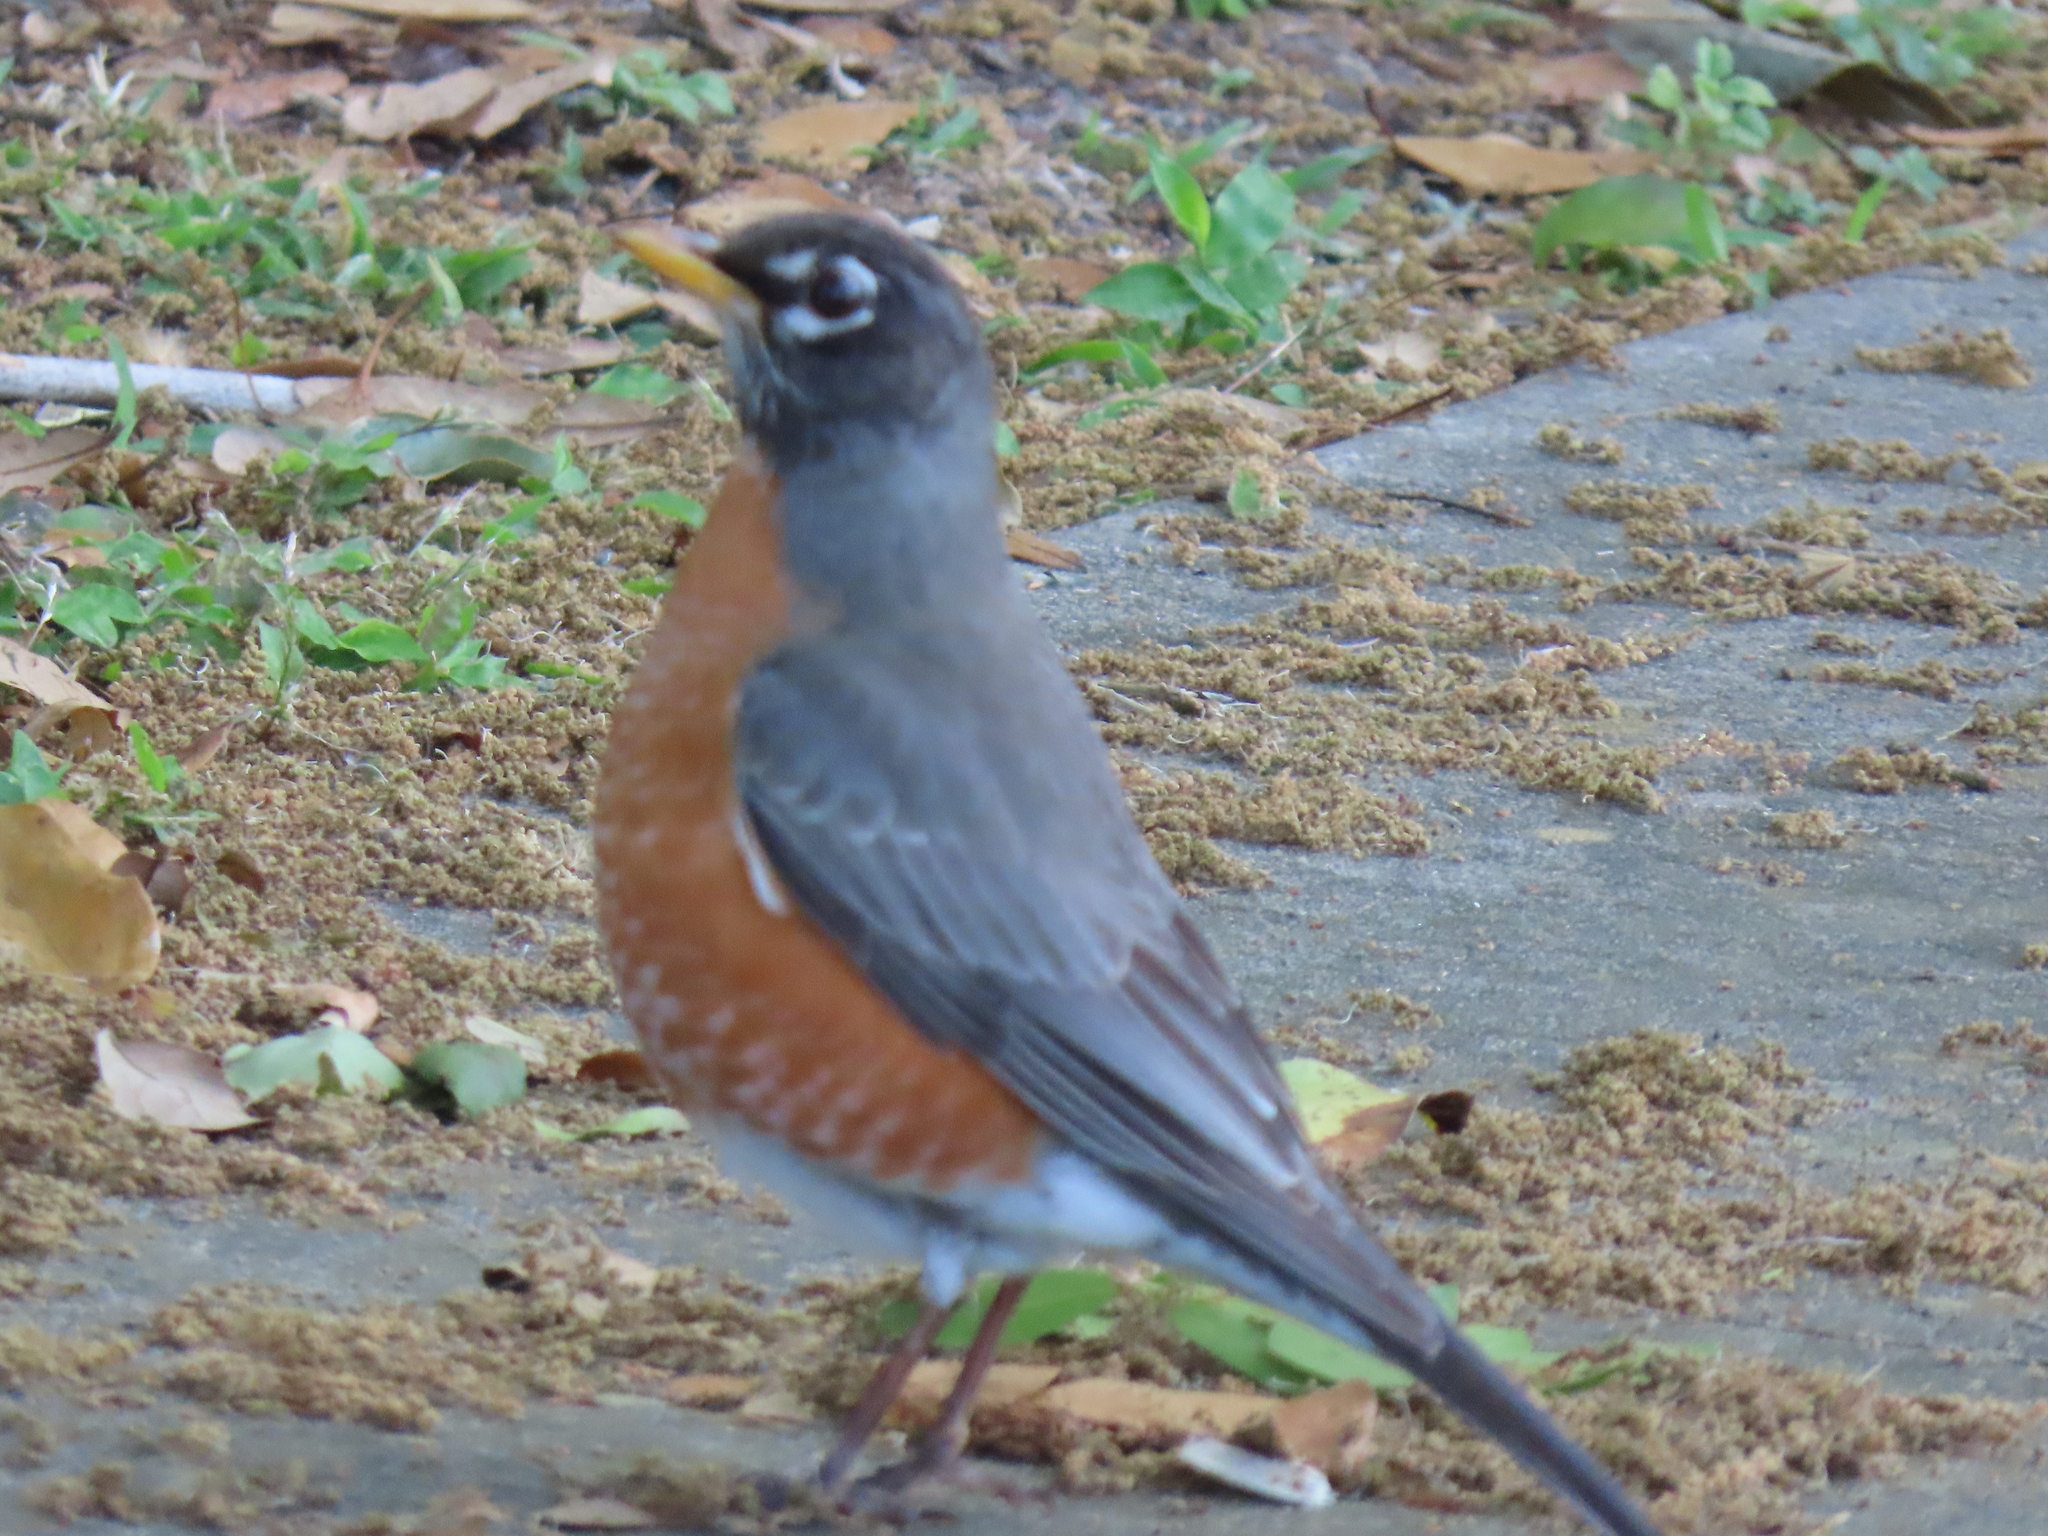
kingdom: Animalia
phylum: Chordata
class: Aves
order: Passeriformes
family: Turdidae
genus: Turdus
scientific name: Turdus migratorius
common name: American robin
